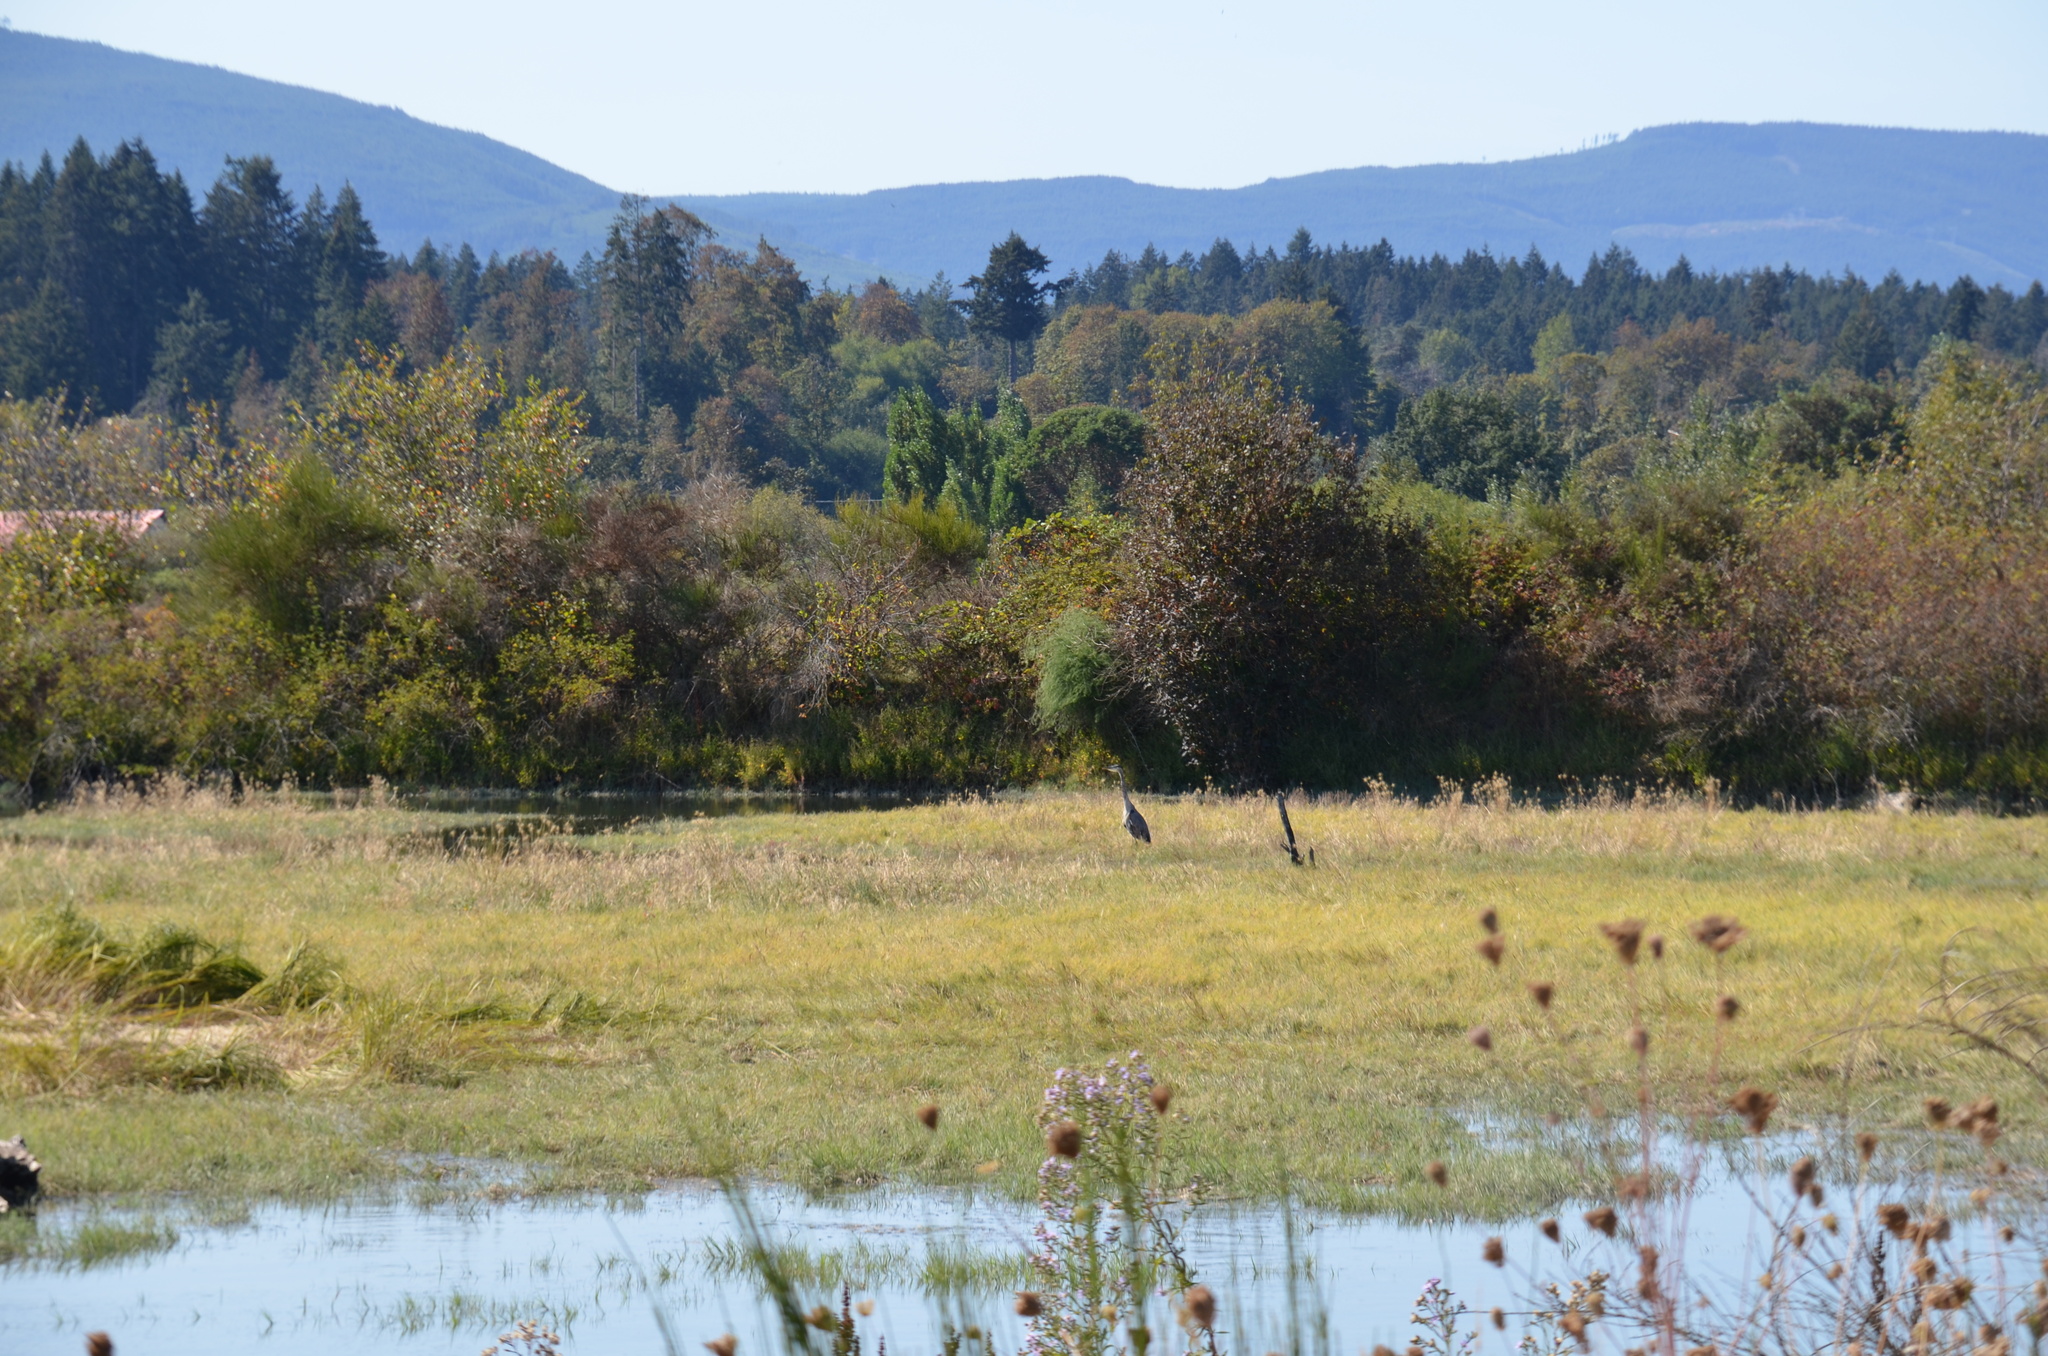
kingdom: Animalia
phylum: Chordata
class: Aves
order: Pelecaniformes
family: Ardeidae
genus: Ardea
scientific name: Ardea herodias
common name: Great blue heron
